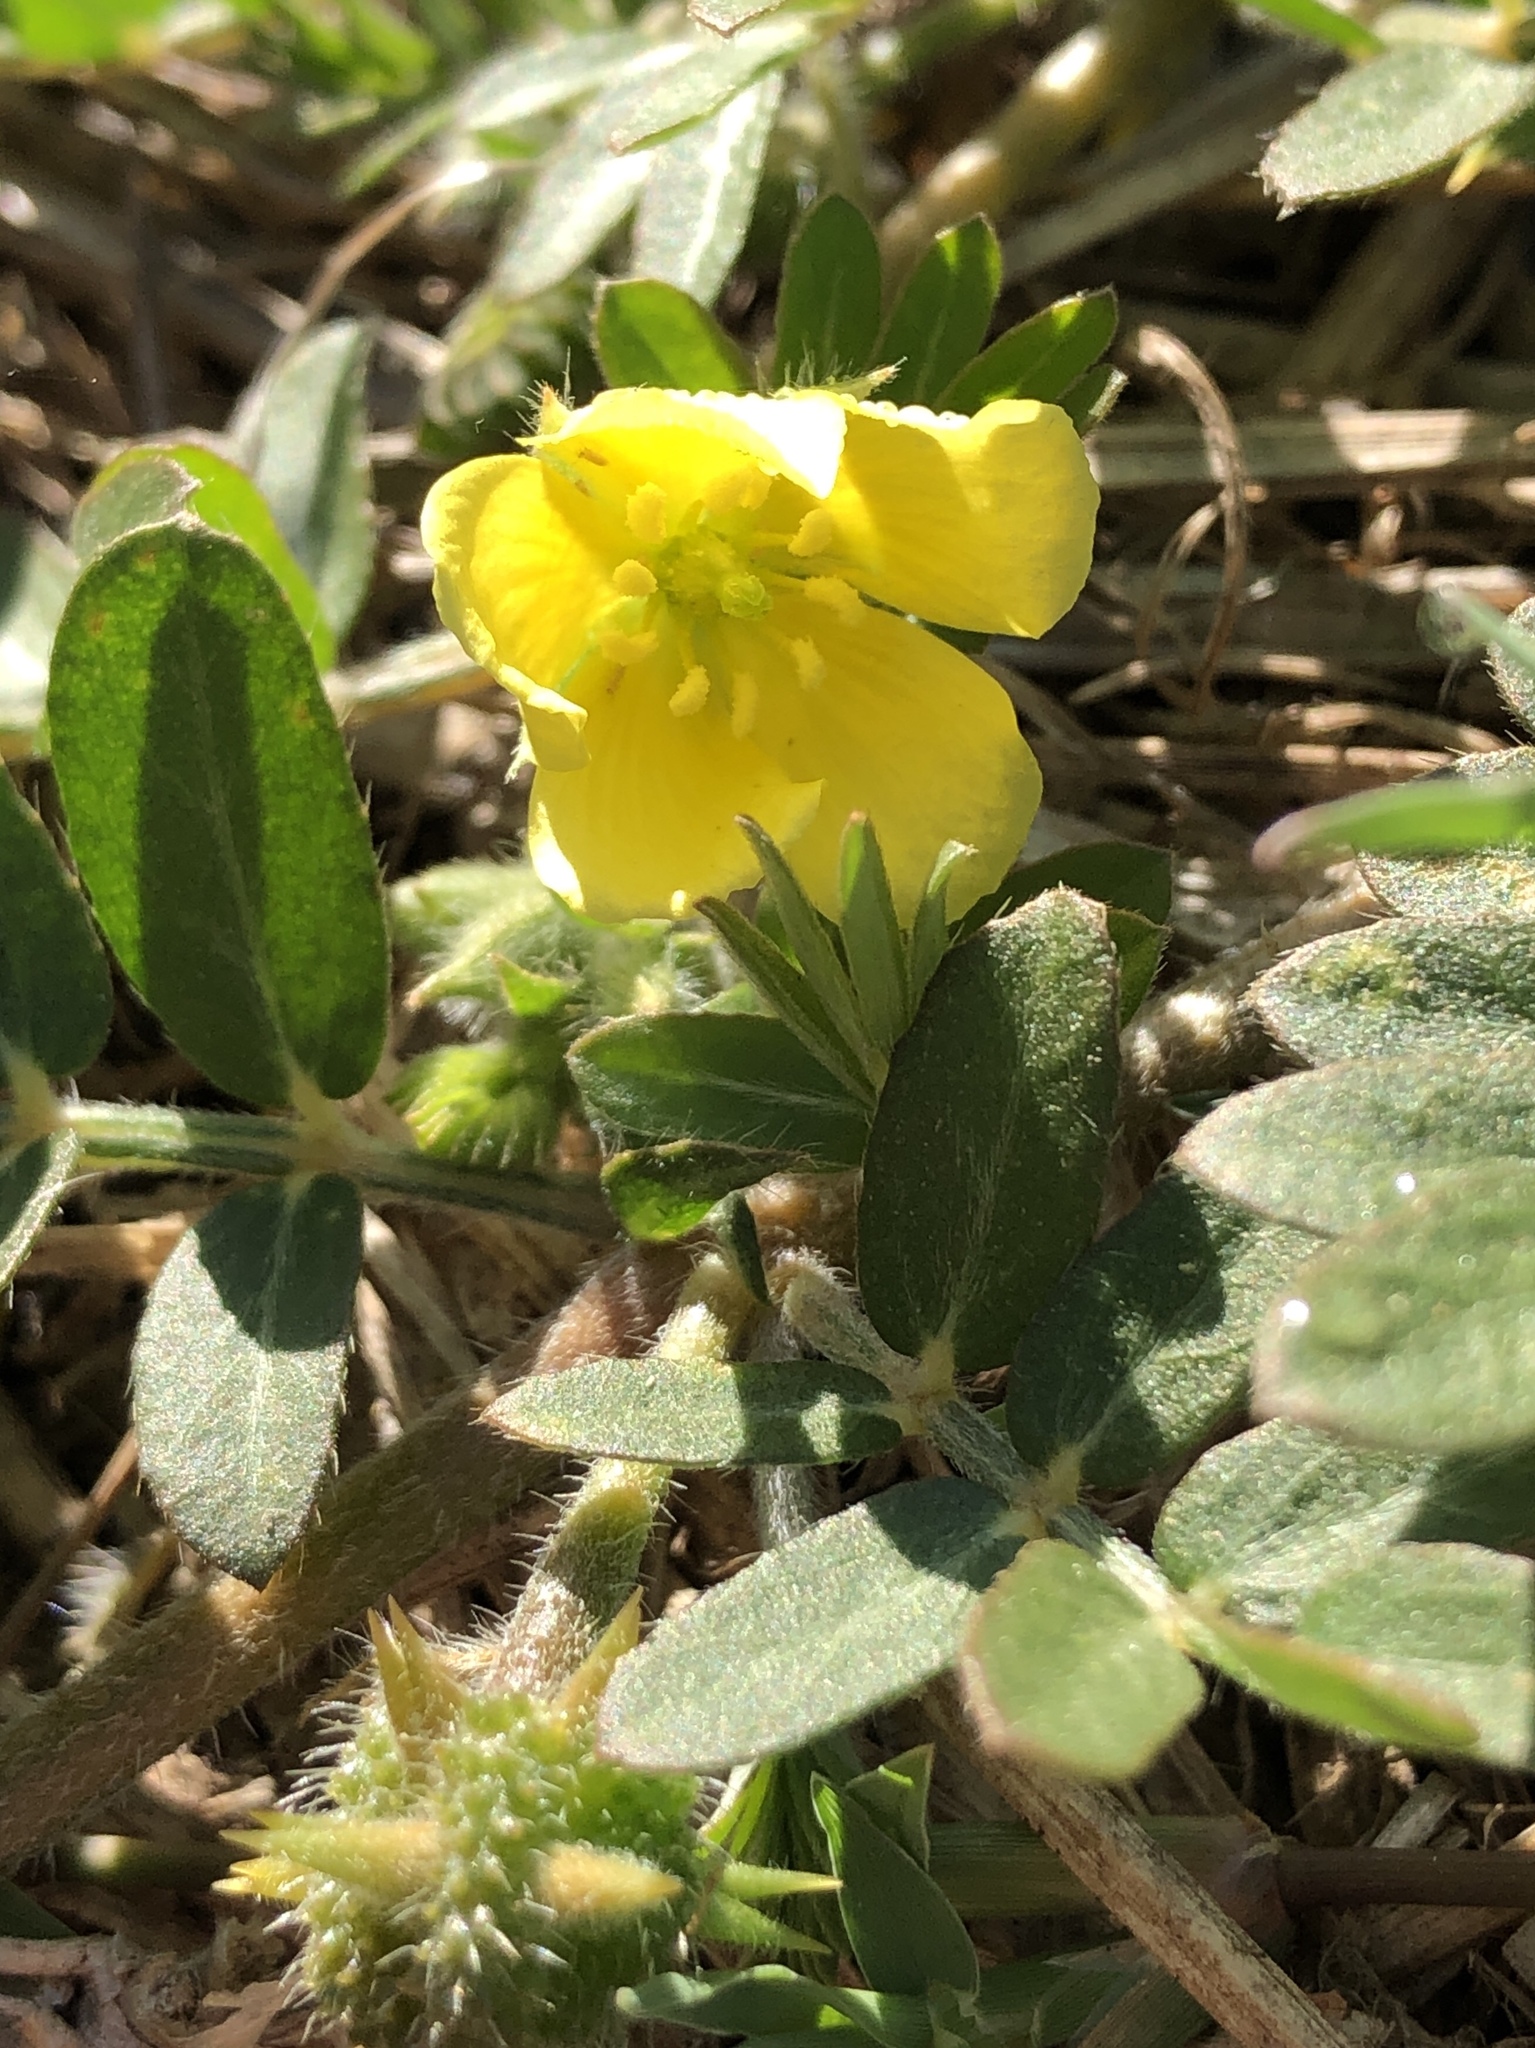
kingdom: Plantae
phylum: Tracheophyta
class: Magnoliopsida
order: Zygophyllales
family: Zygophyllaceae
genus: Tribulus
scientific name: Tribulus eichlerianus
